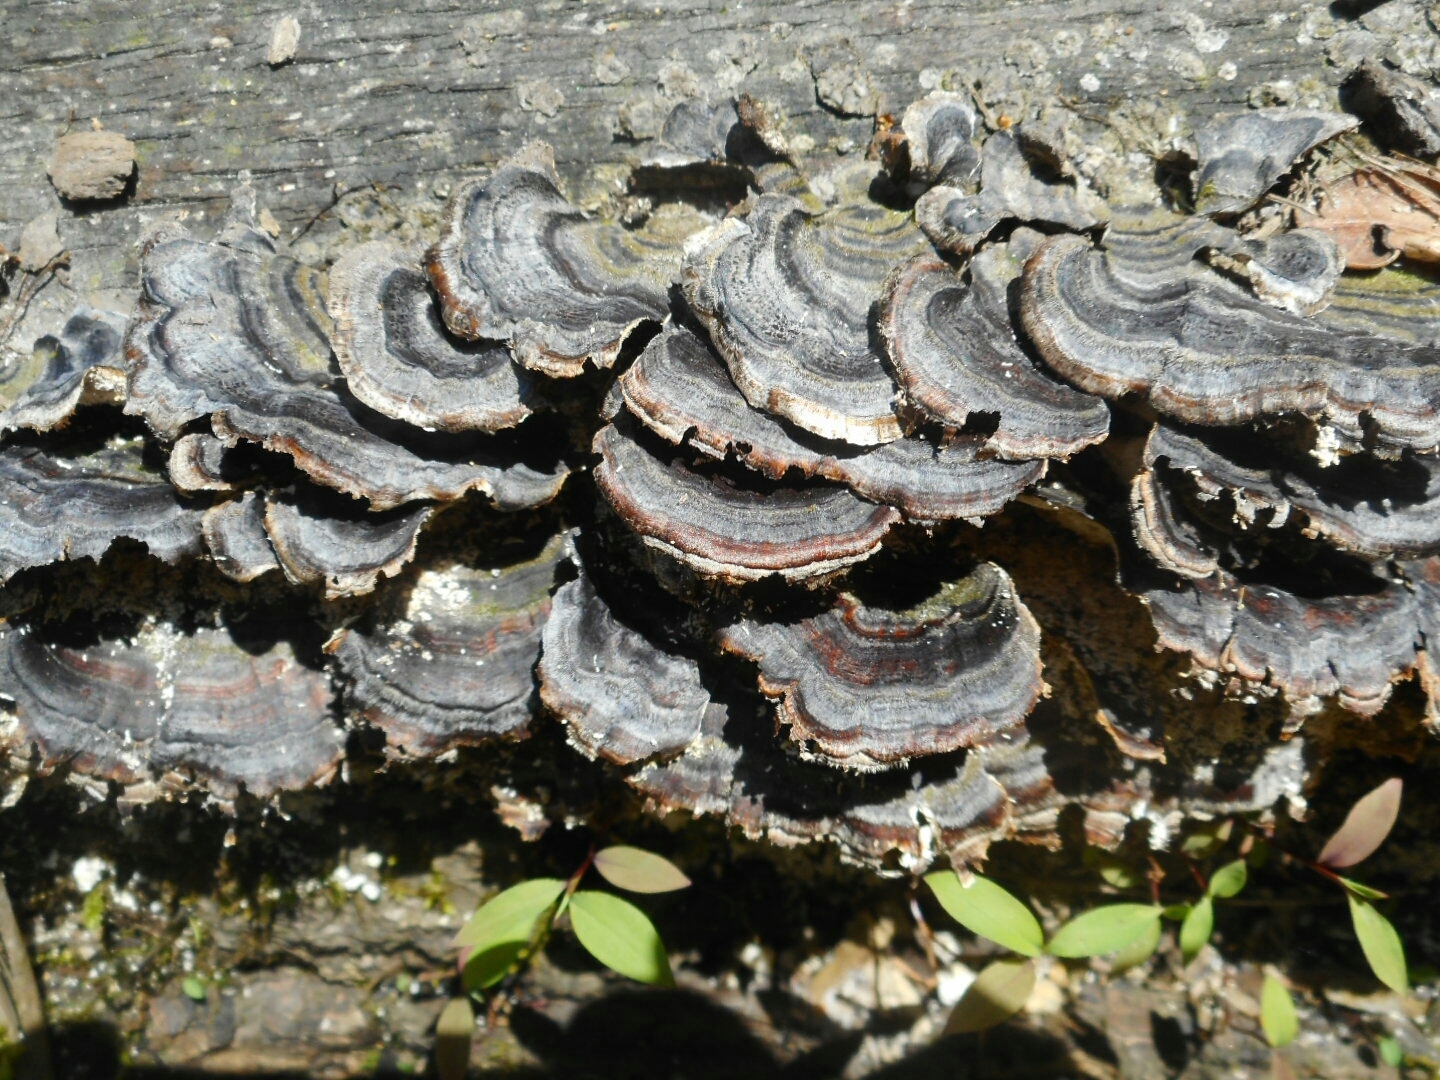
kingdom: Fungi
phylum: Basidiomycota
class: Agaricomycetes
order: Polyporales
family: Polyporaceae
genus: Trametes
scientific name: Trametes versicolor
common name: Turkeytail
